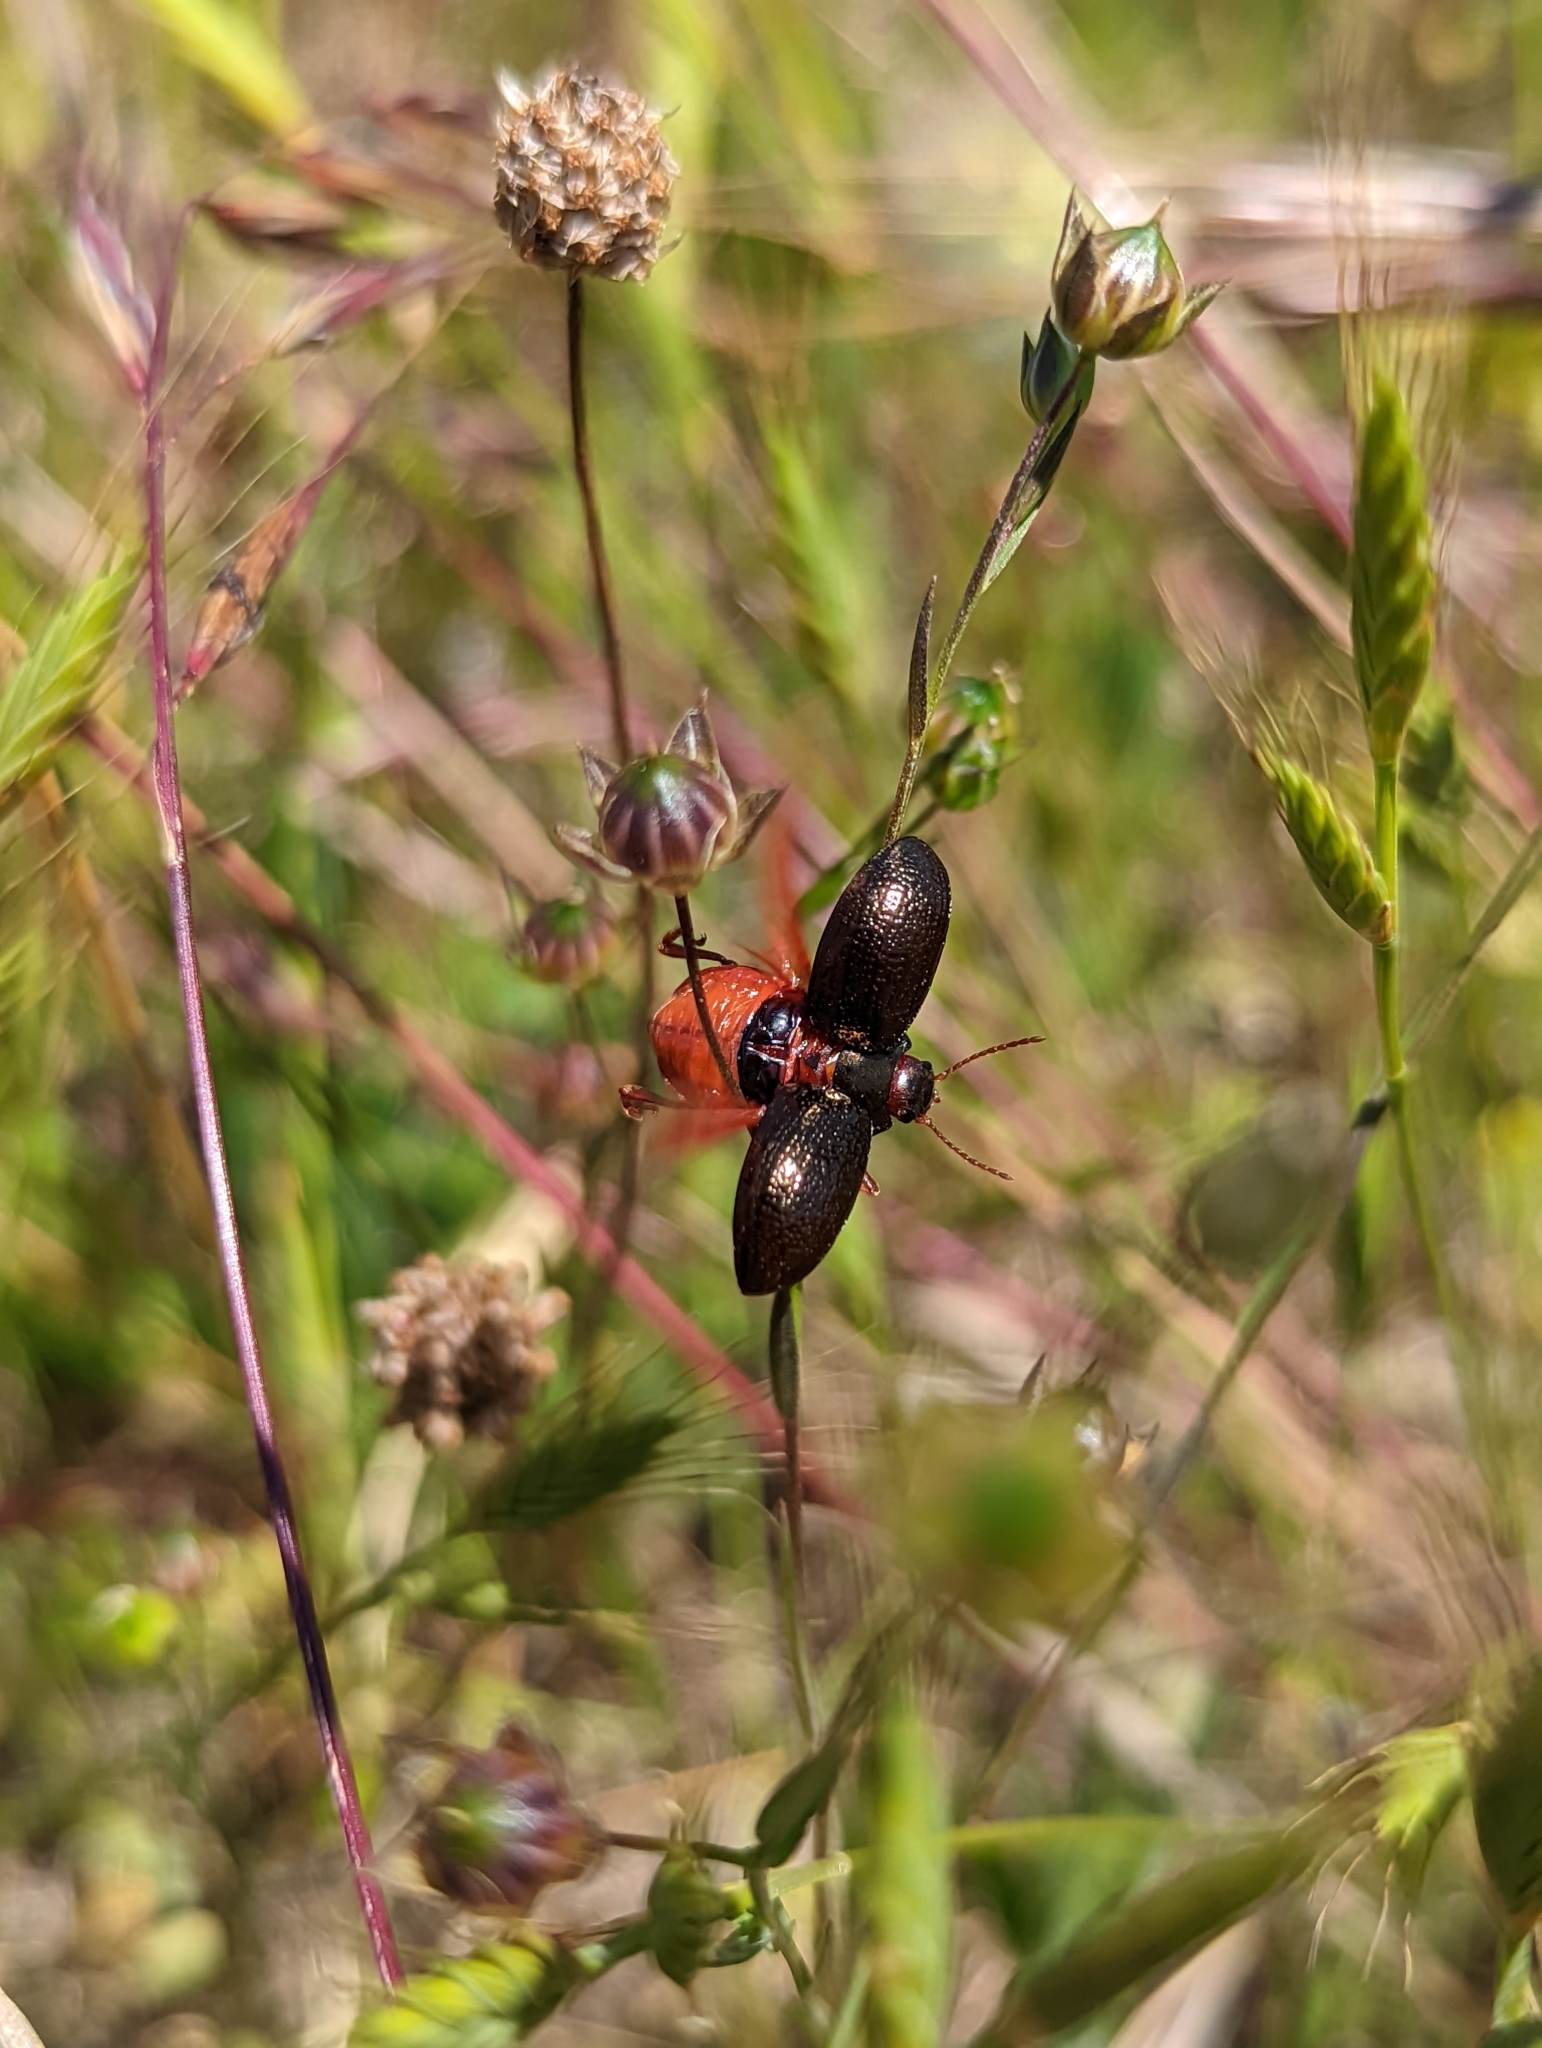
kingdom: Animalia
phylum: Arthropoda
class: Insecta
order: Coleoptera
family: Chrysomelidae
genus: Chrysolina
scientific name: Chrysolina bankii
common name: Leaf beetle
